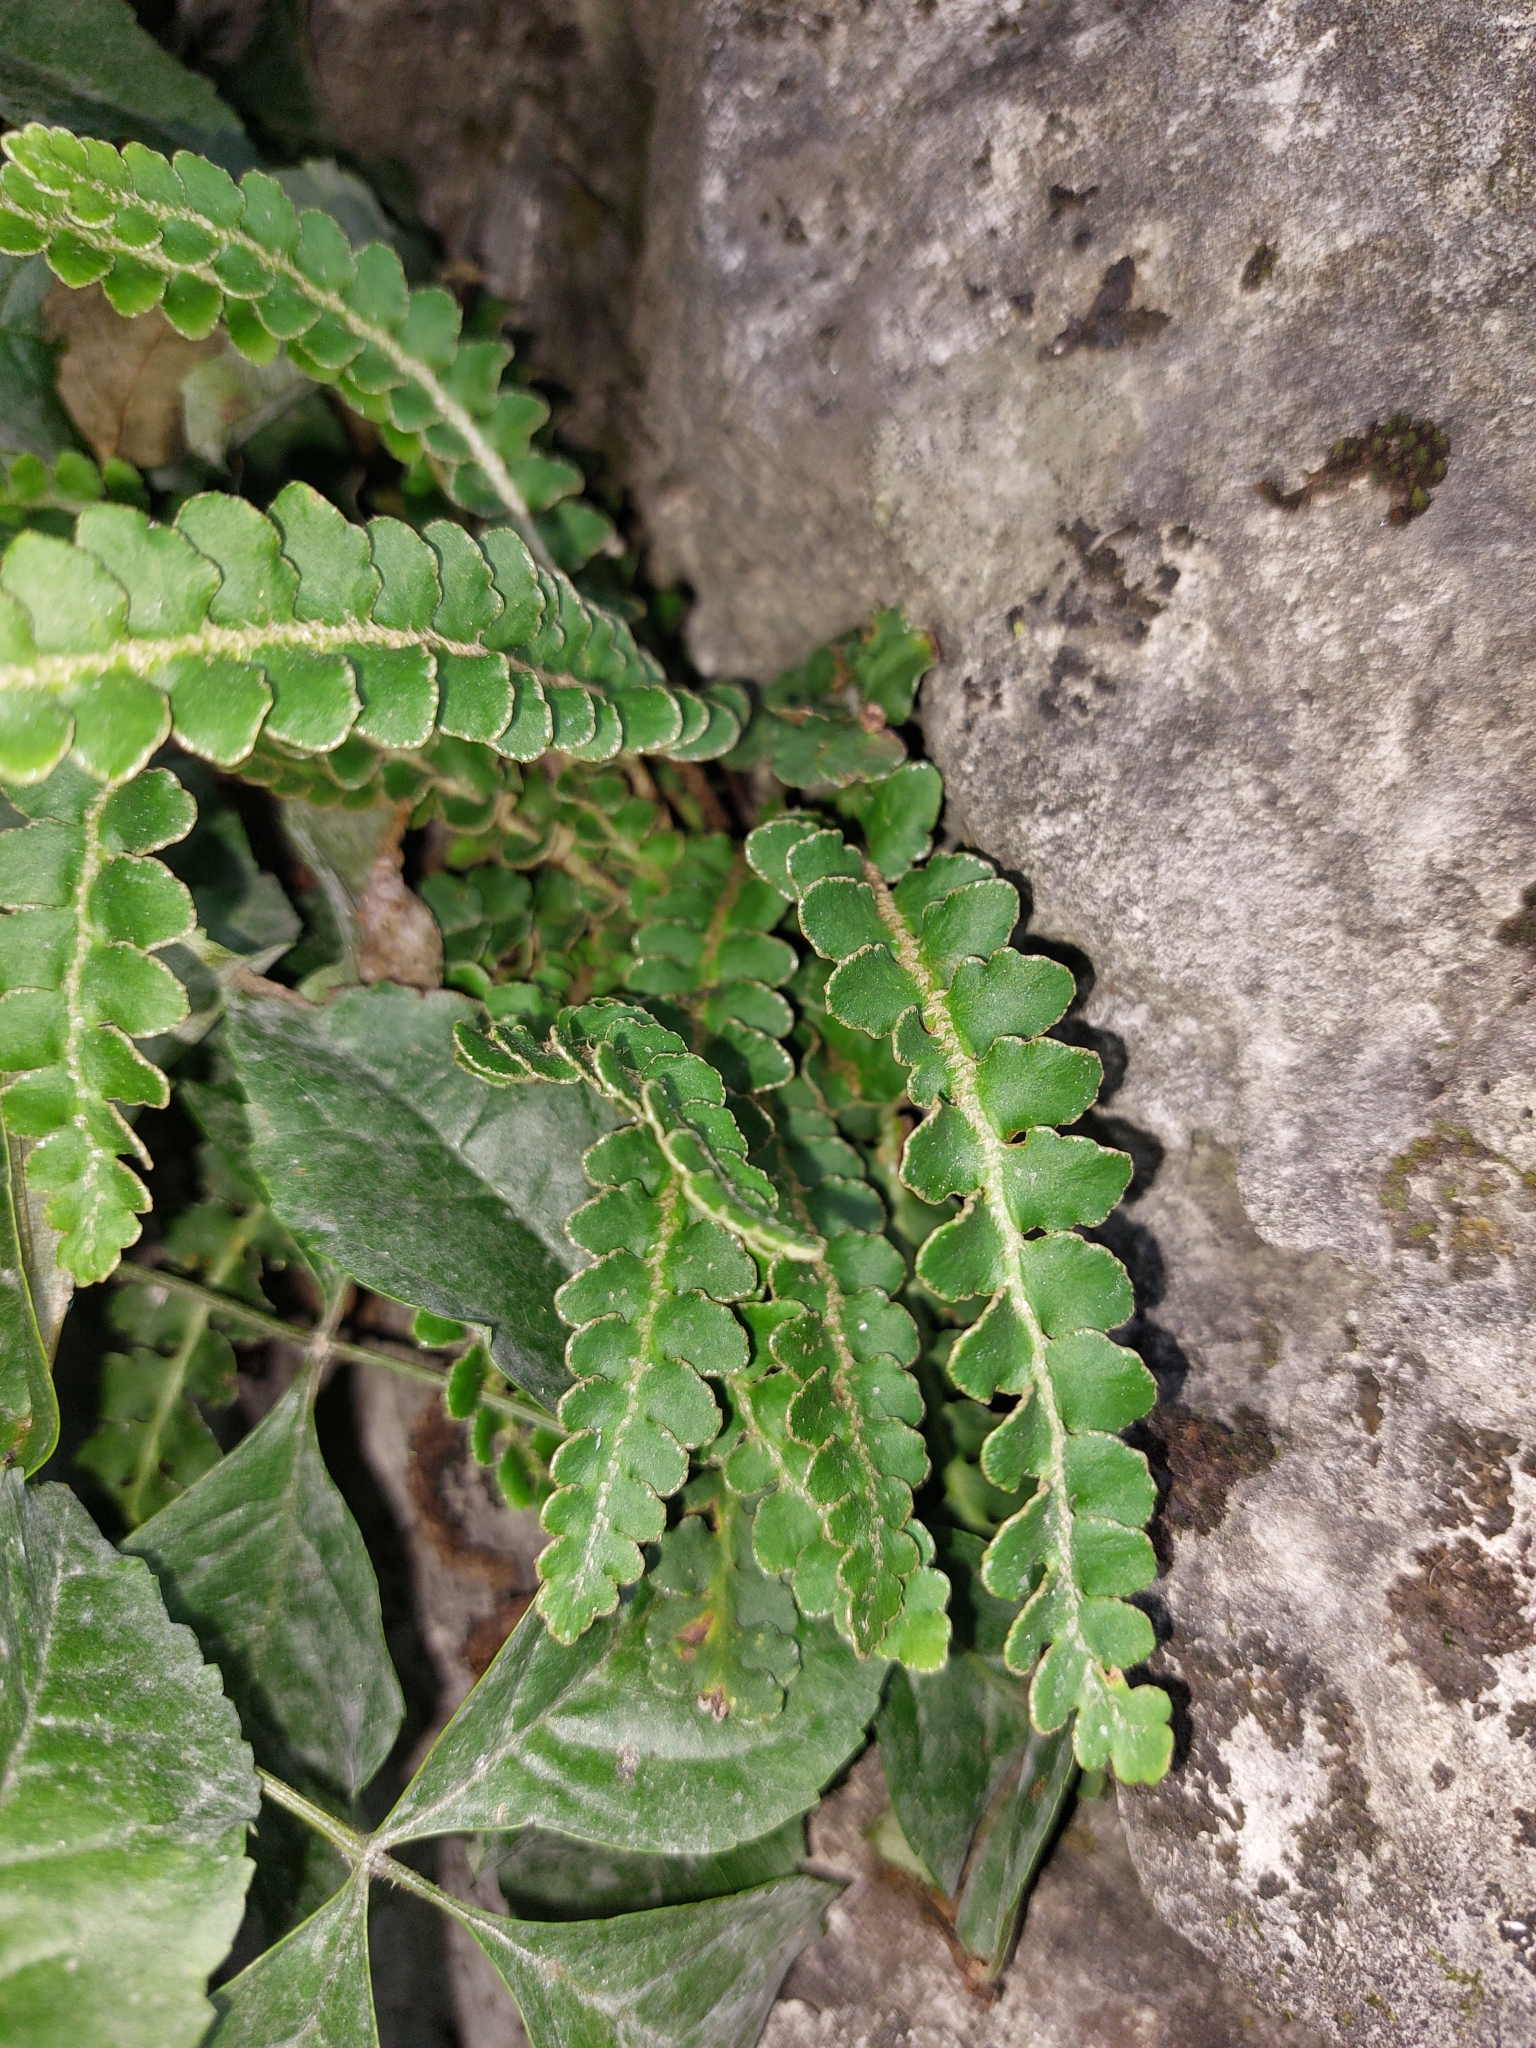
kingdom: Plantae
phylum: Tracheophyta
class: Polypodiopsida
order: Polypodiales
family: Aspleniaceae
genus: Asplenium
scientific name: Asplenium ceterach
